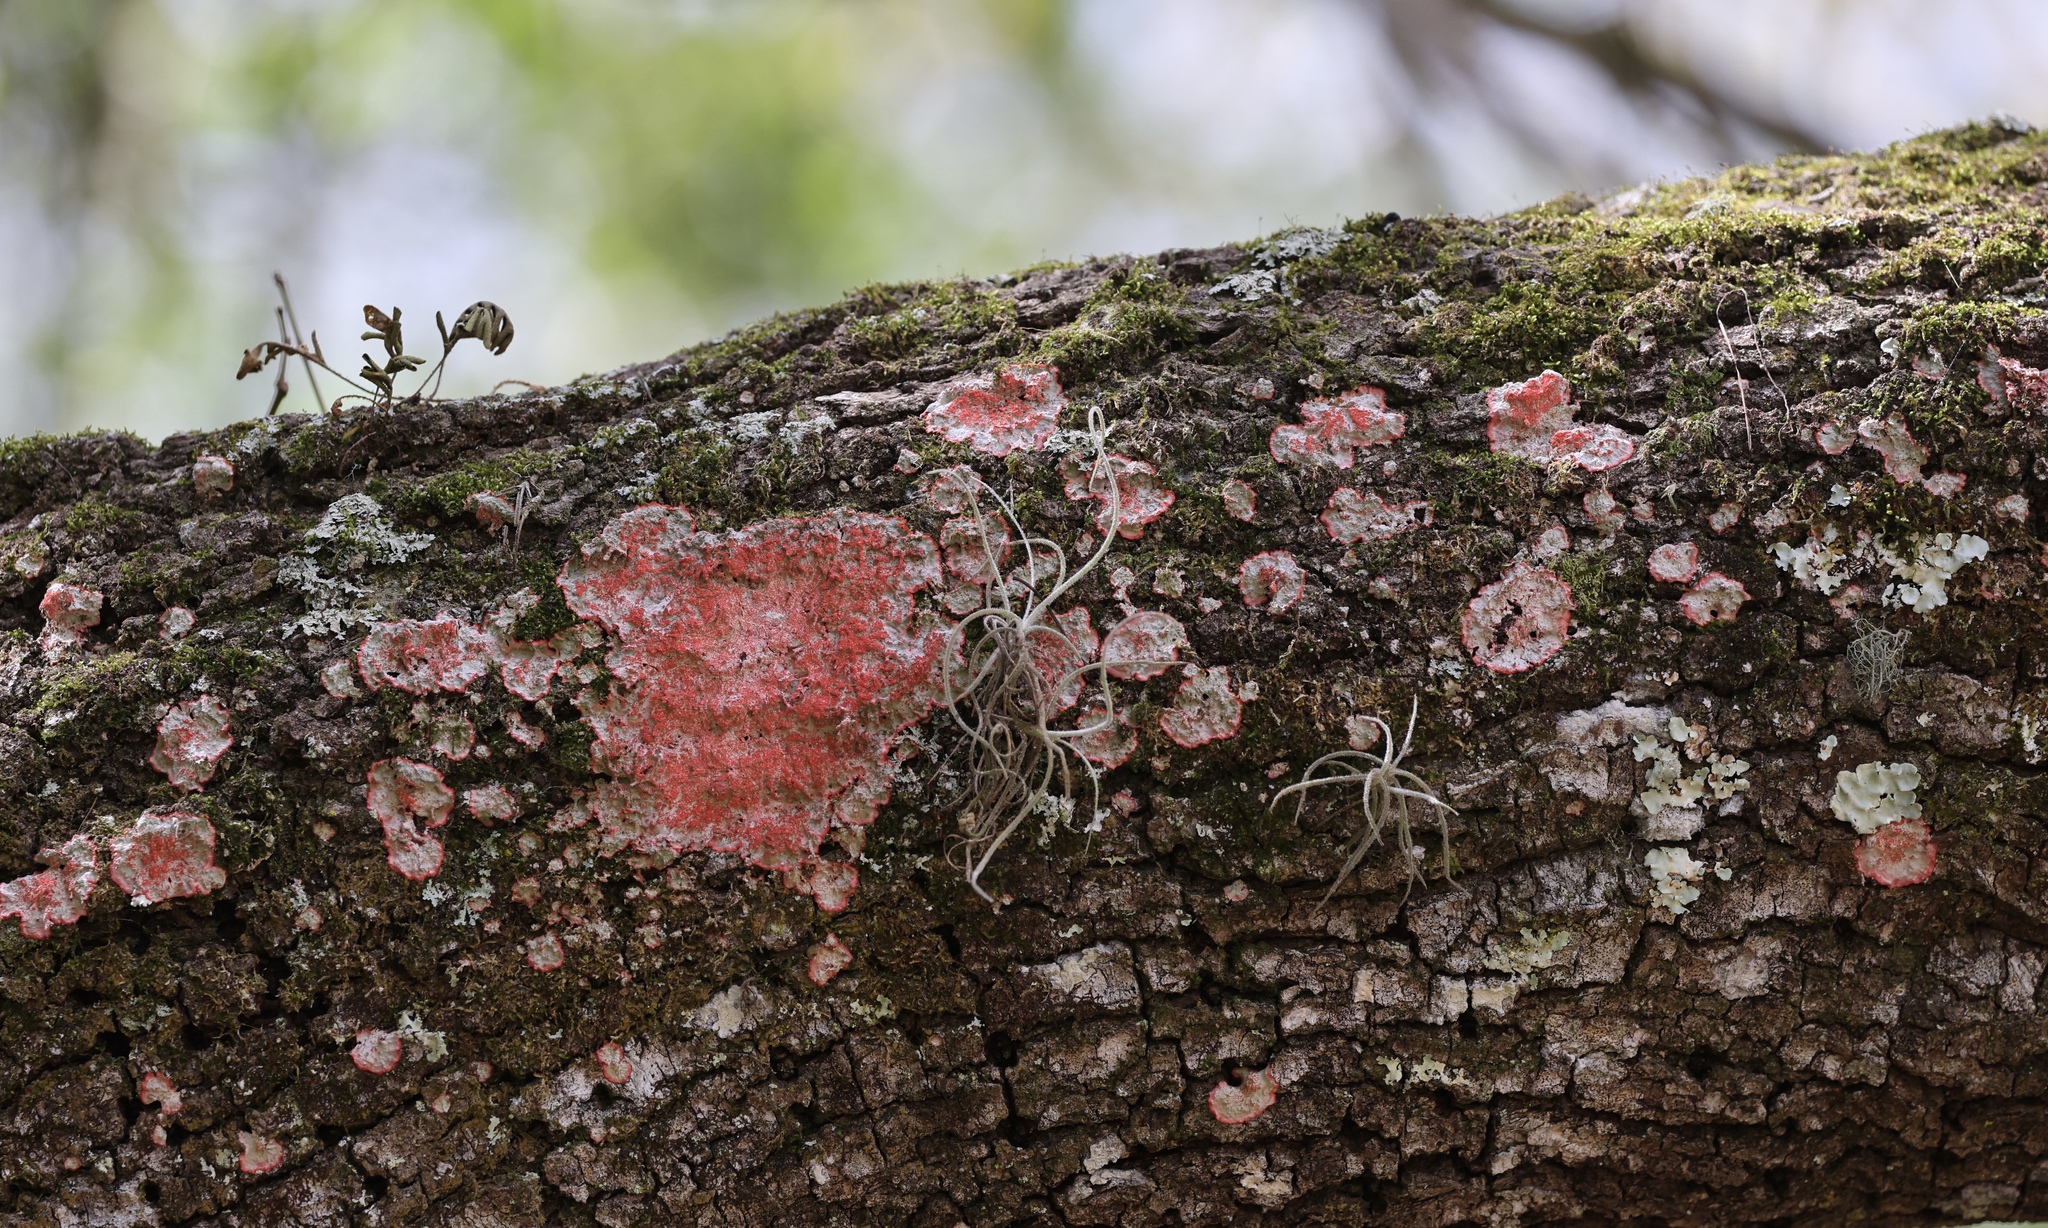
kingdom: Fungi
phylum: Ascomycota
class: Arthoniomycetes
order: Arthoniales
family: Arthoniaceae
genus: Herpothallon
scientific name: Herpothallon rubrocinctum
